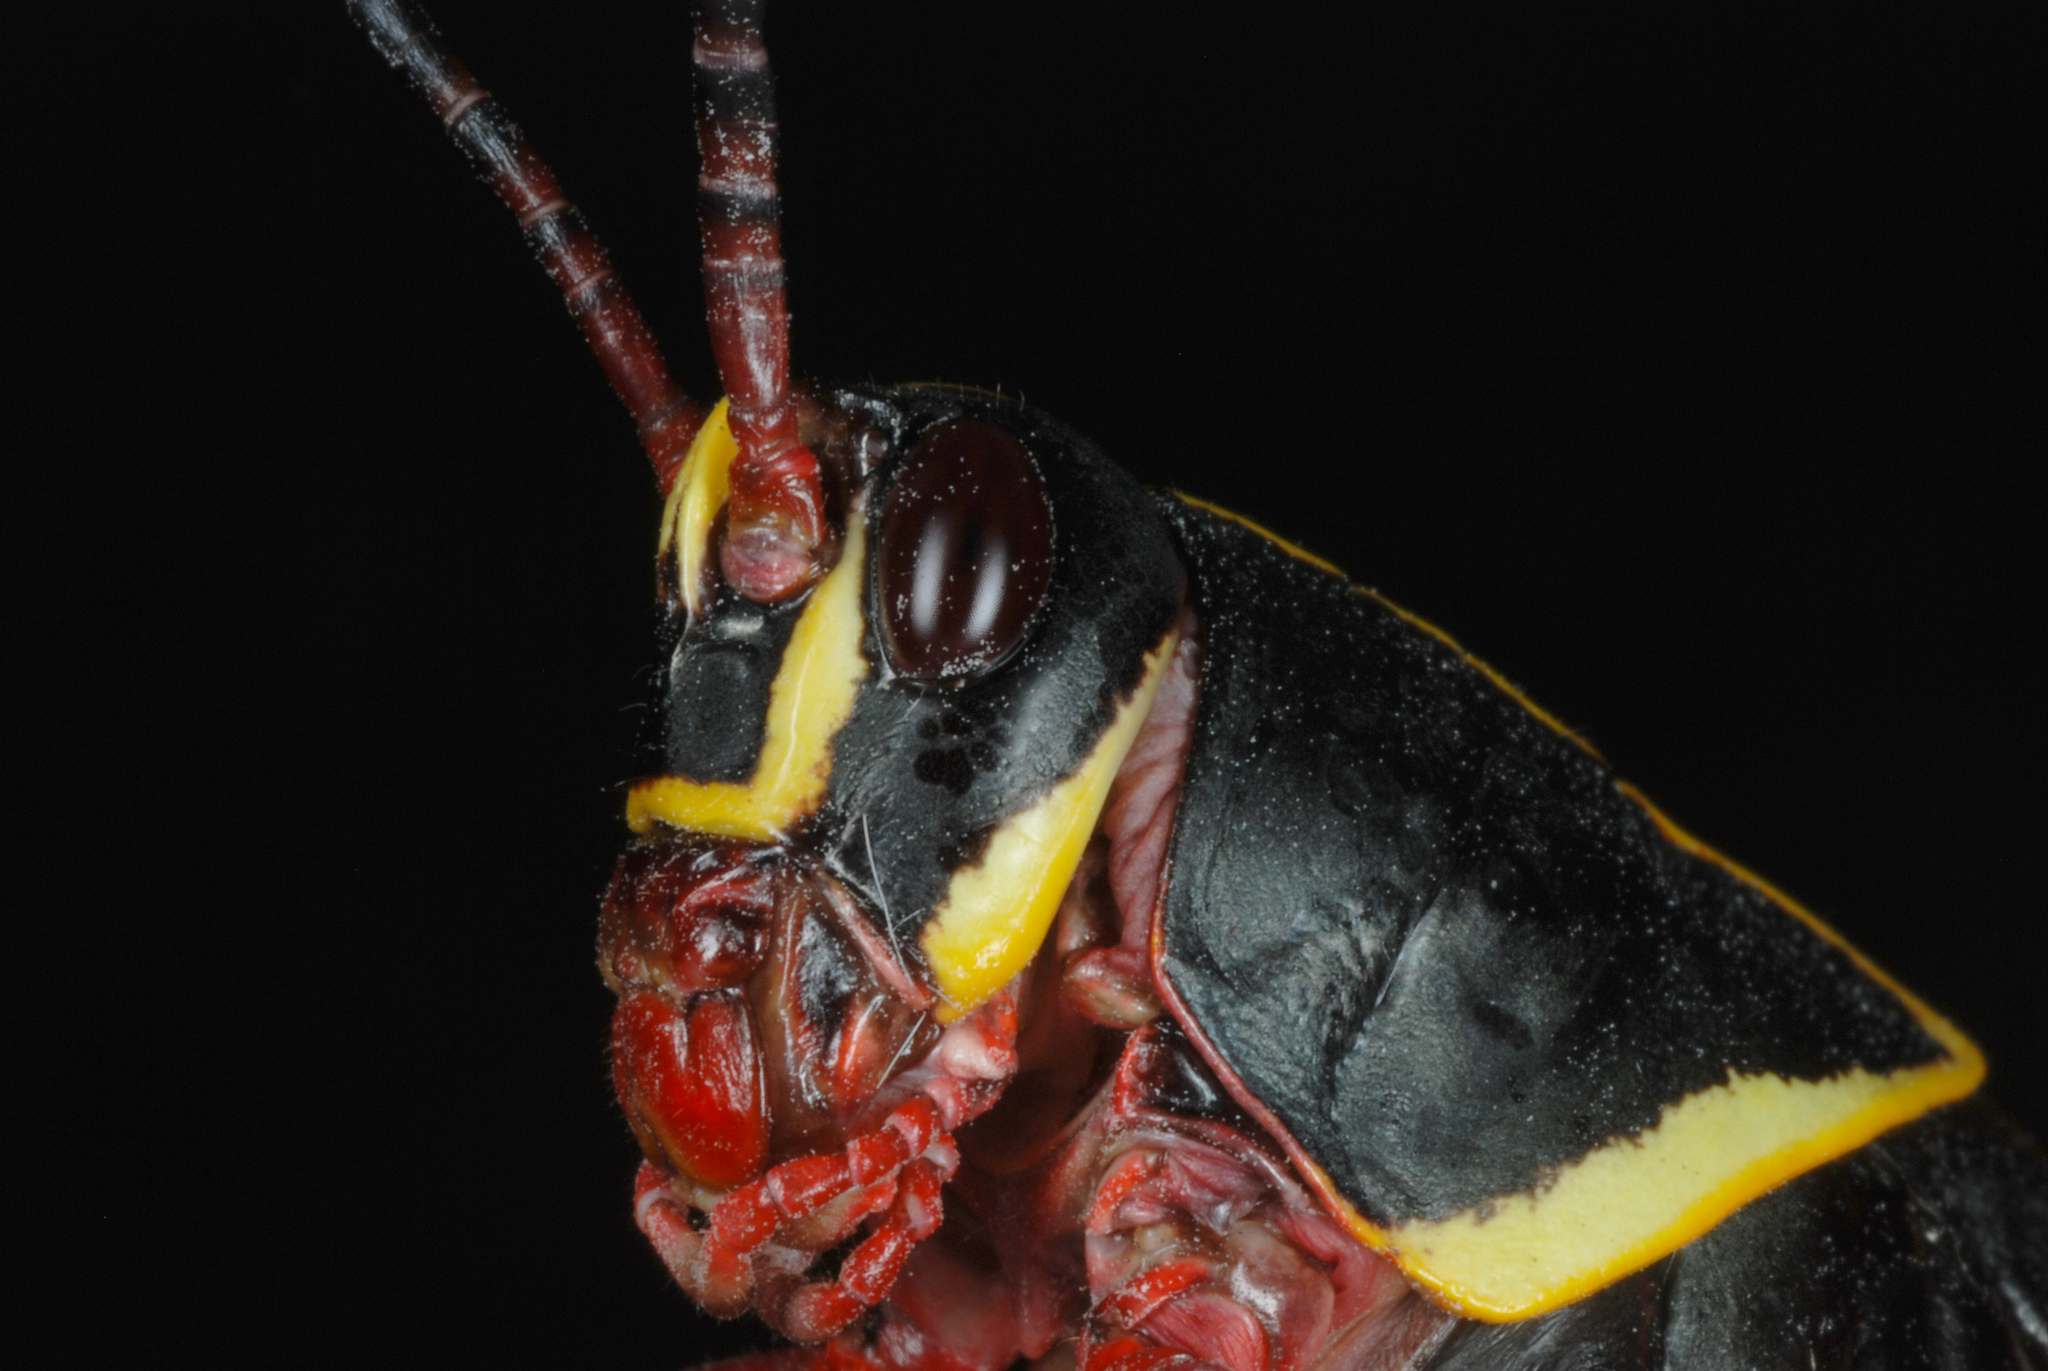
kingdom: Animalia
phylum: Arthropoda
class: Insecta
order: Orthoptera
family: Romaleidae
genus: Romalea
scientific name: Romalea microptera
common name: Eastern lubber grasshopper
